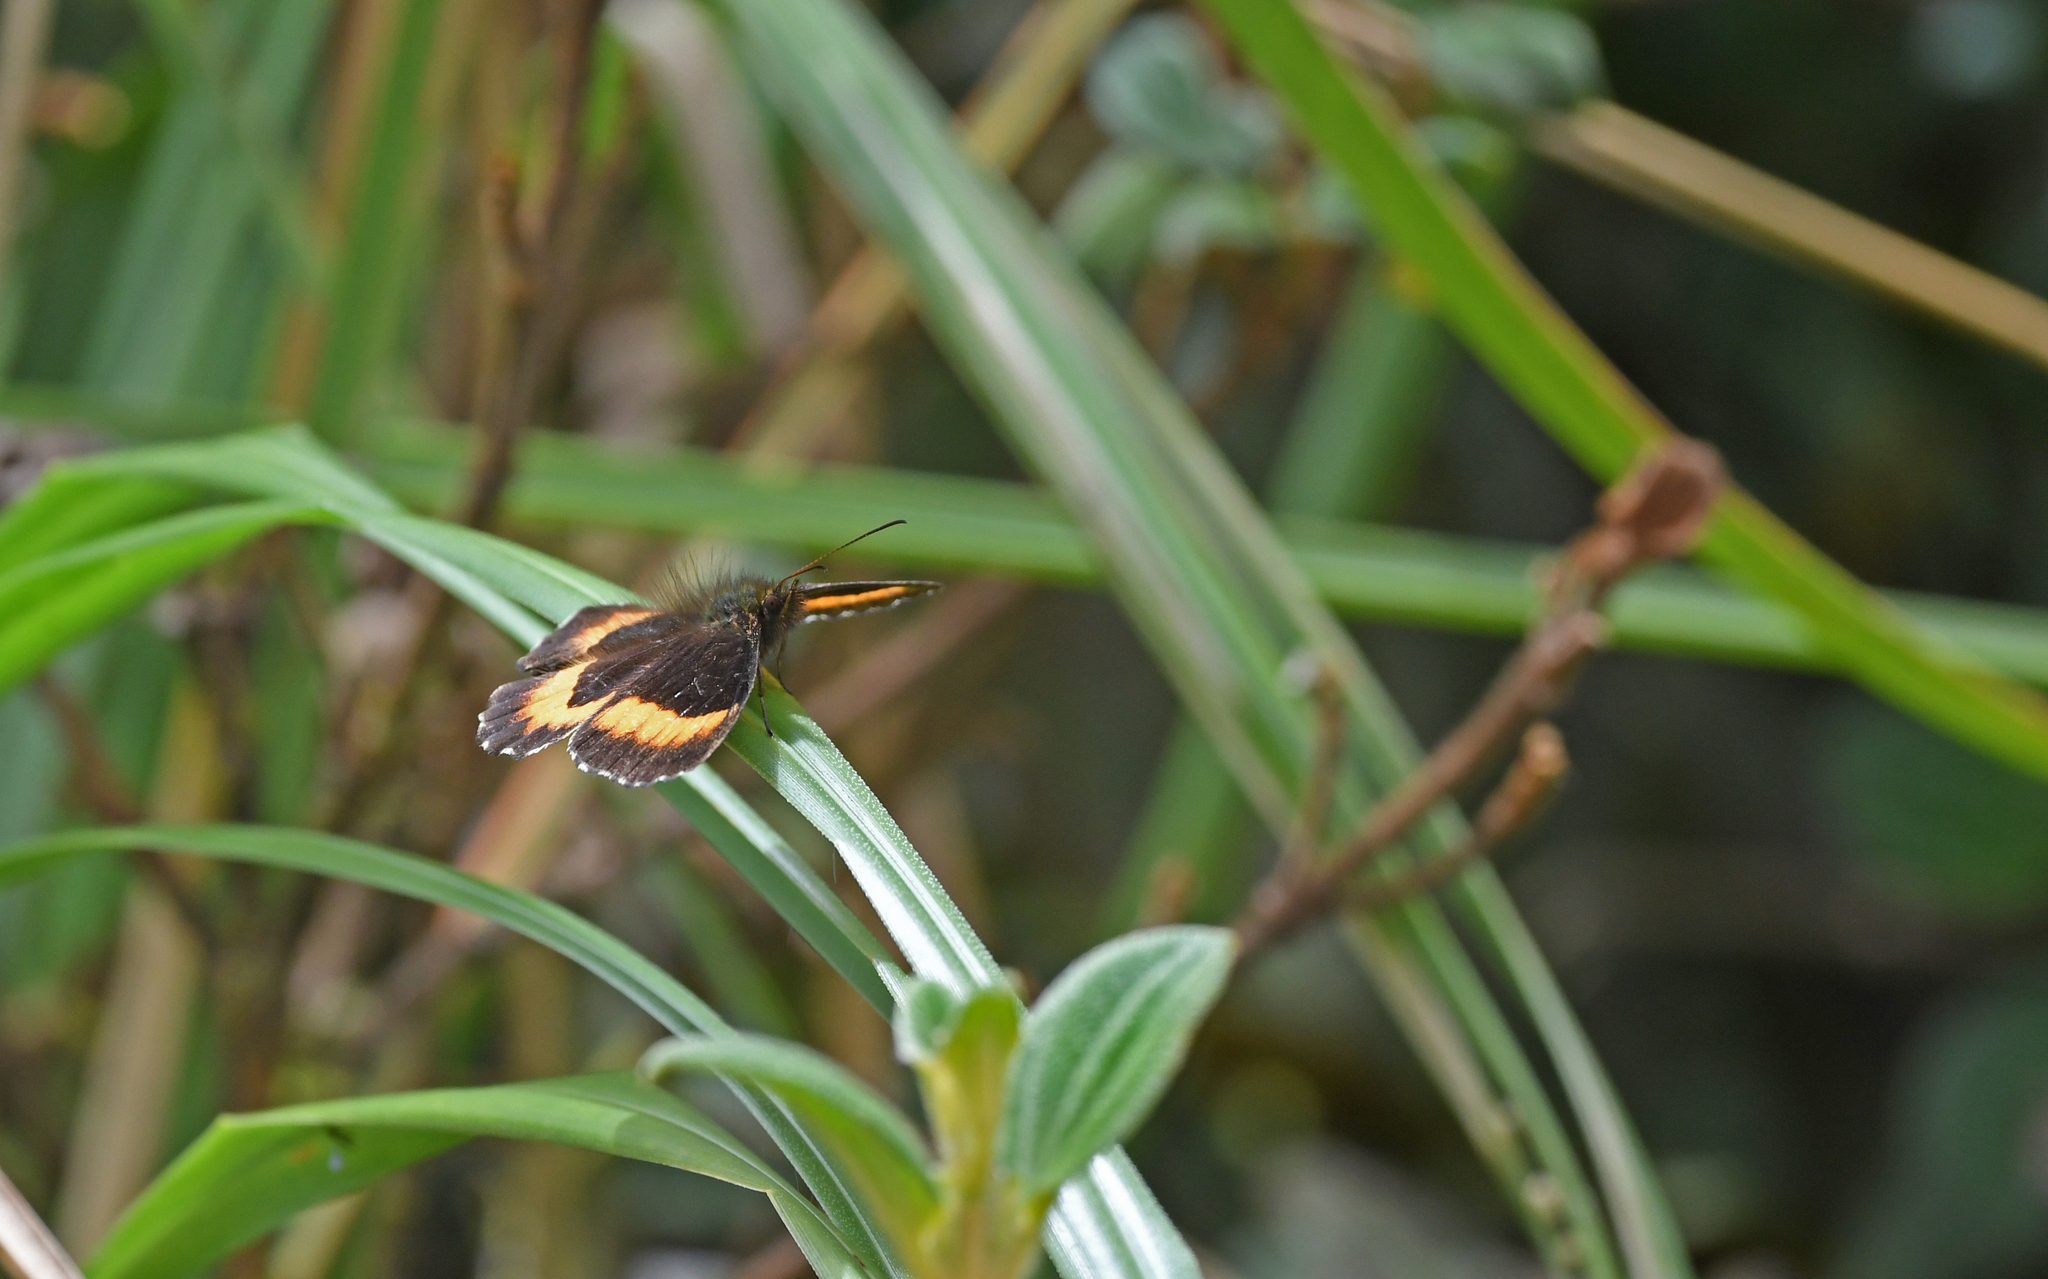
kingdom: Animalia
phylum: Arthropoda
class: Insecta
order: Lepidoptera
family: Nymphalidae
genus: Pedaliodes
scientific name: Pedaliodes phaea
